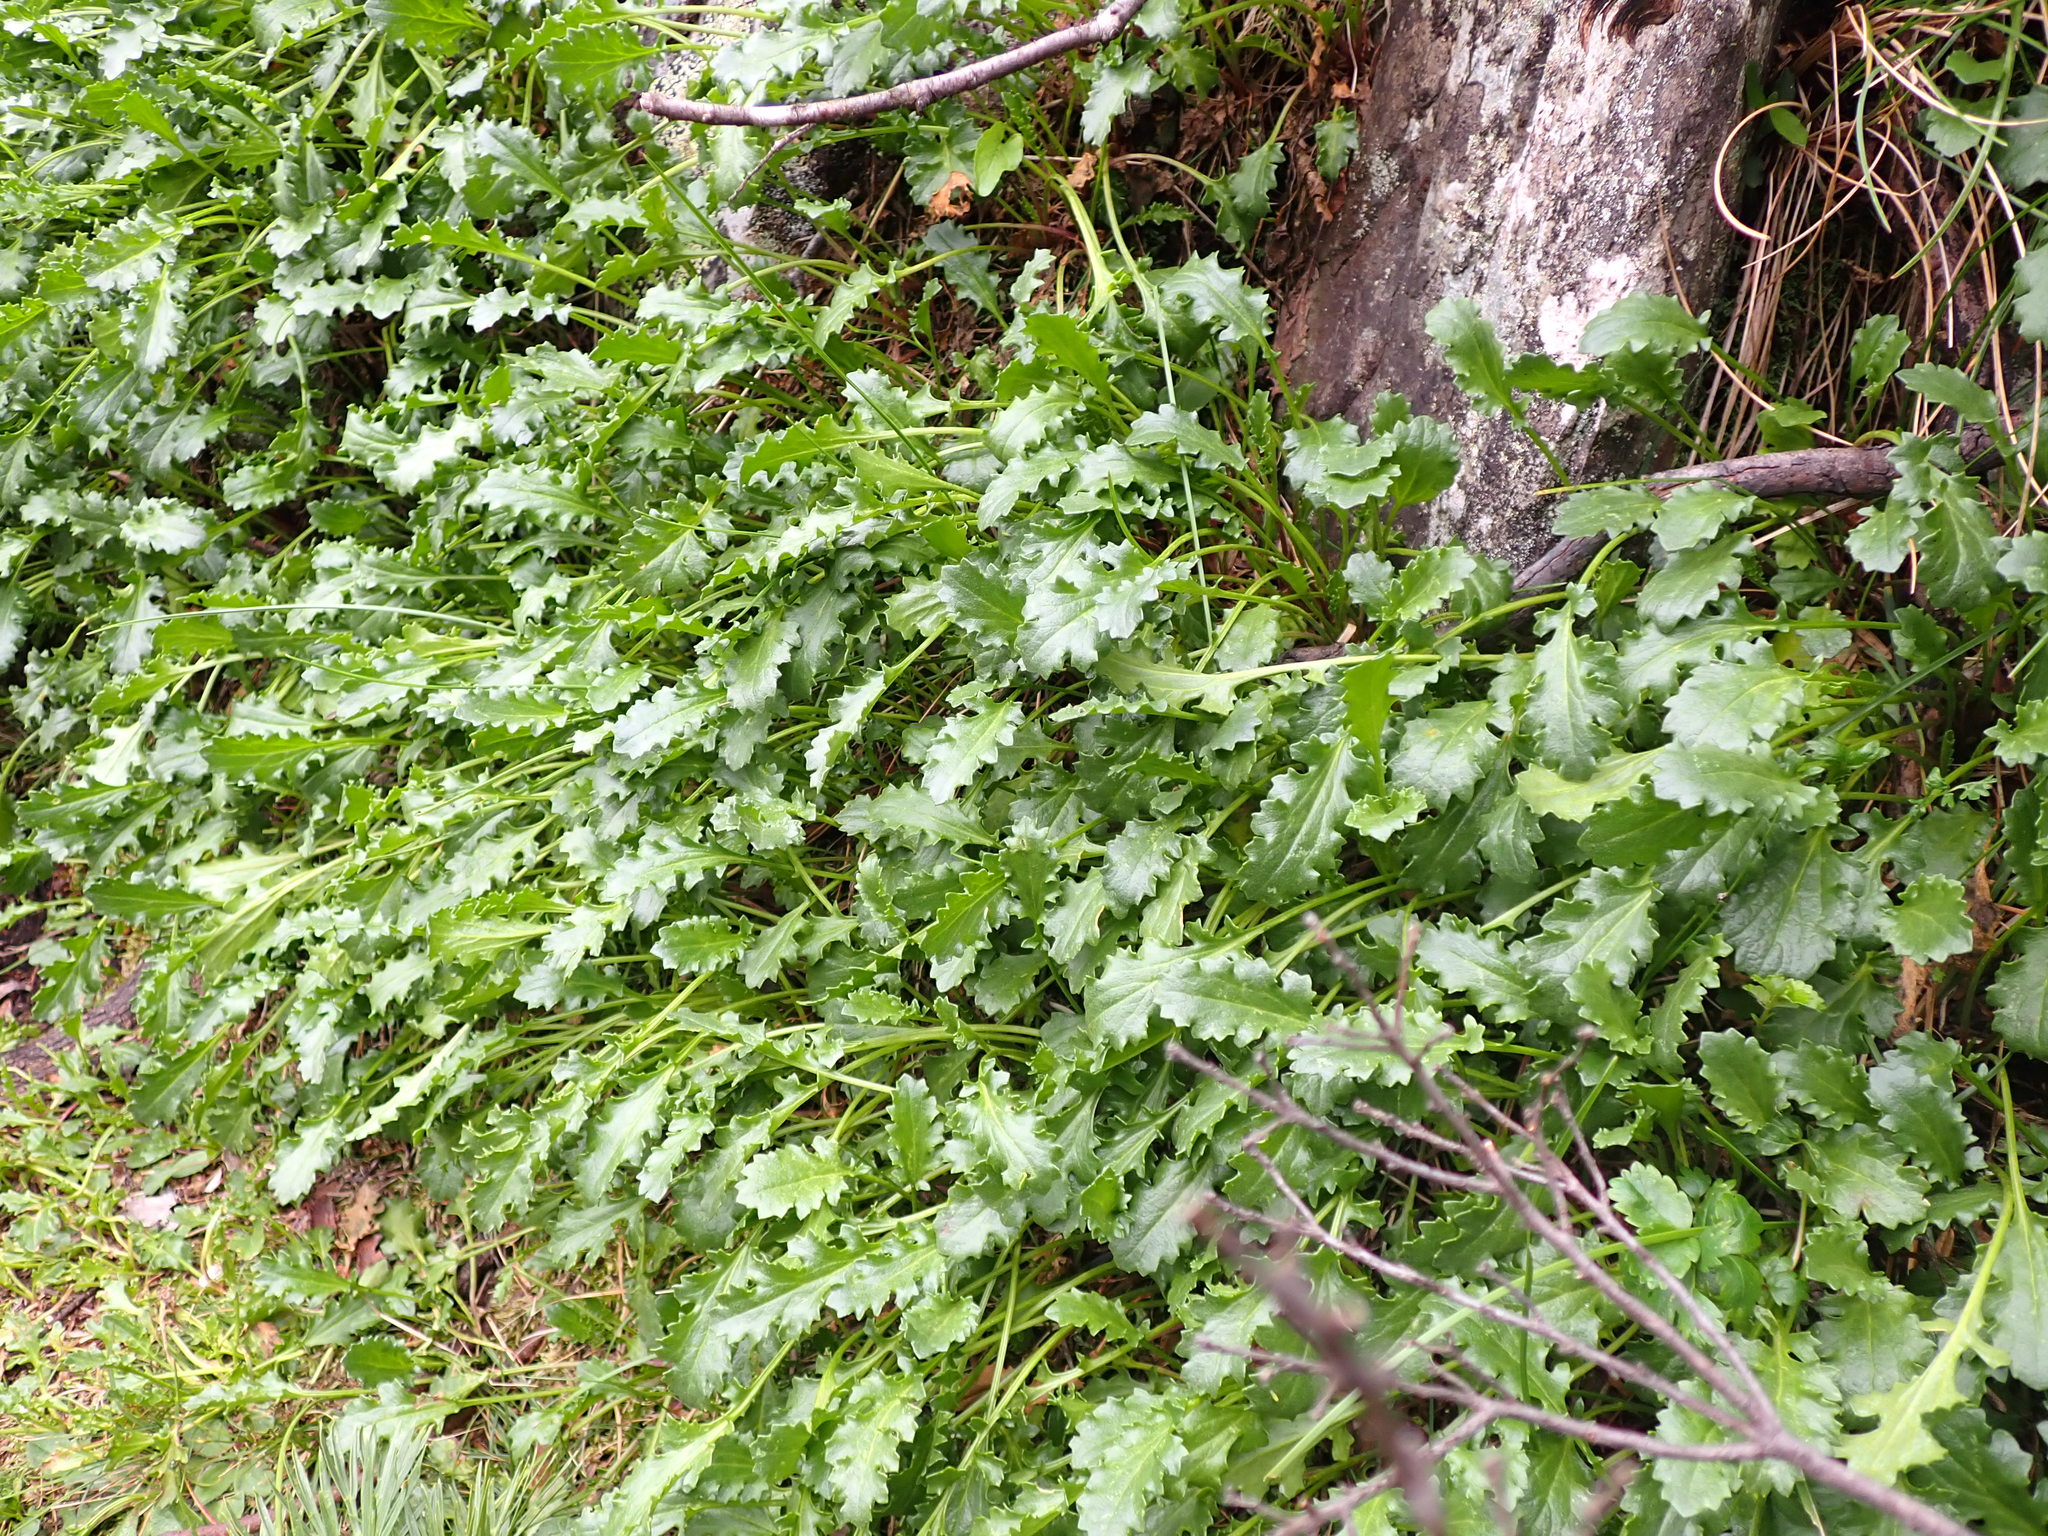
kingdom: Plantae
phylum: Tracheophyta
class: Magnoliopsida
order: Asterales
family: Asteraceae
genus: Scapisenecio
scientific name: Scapisenecio pectinatus
